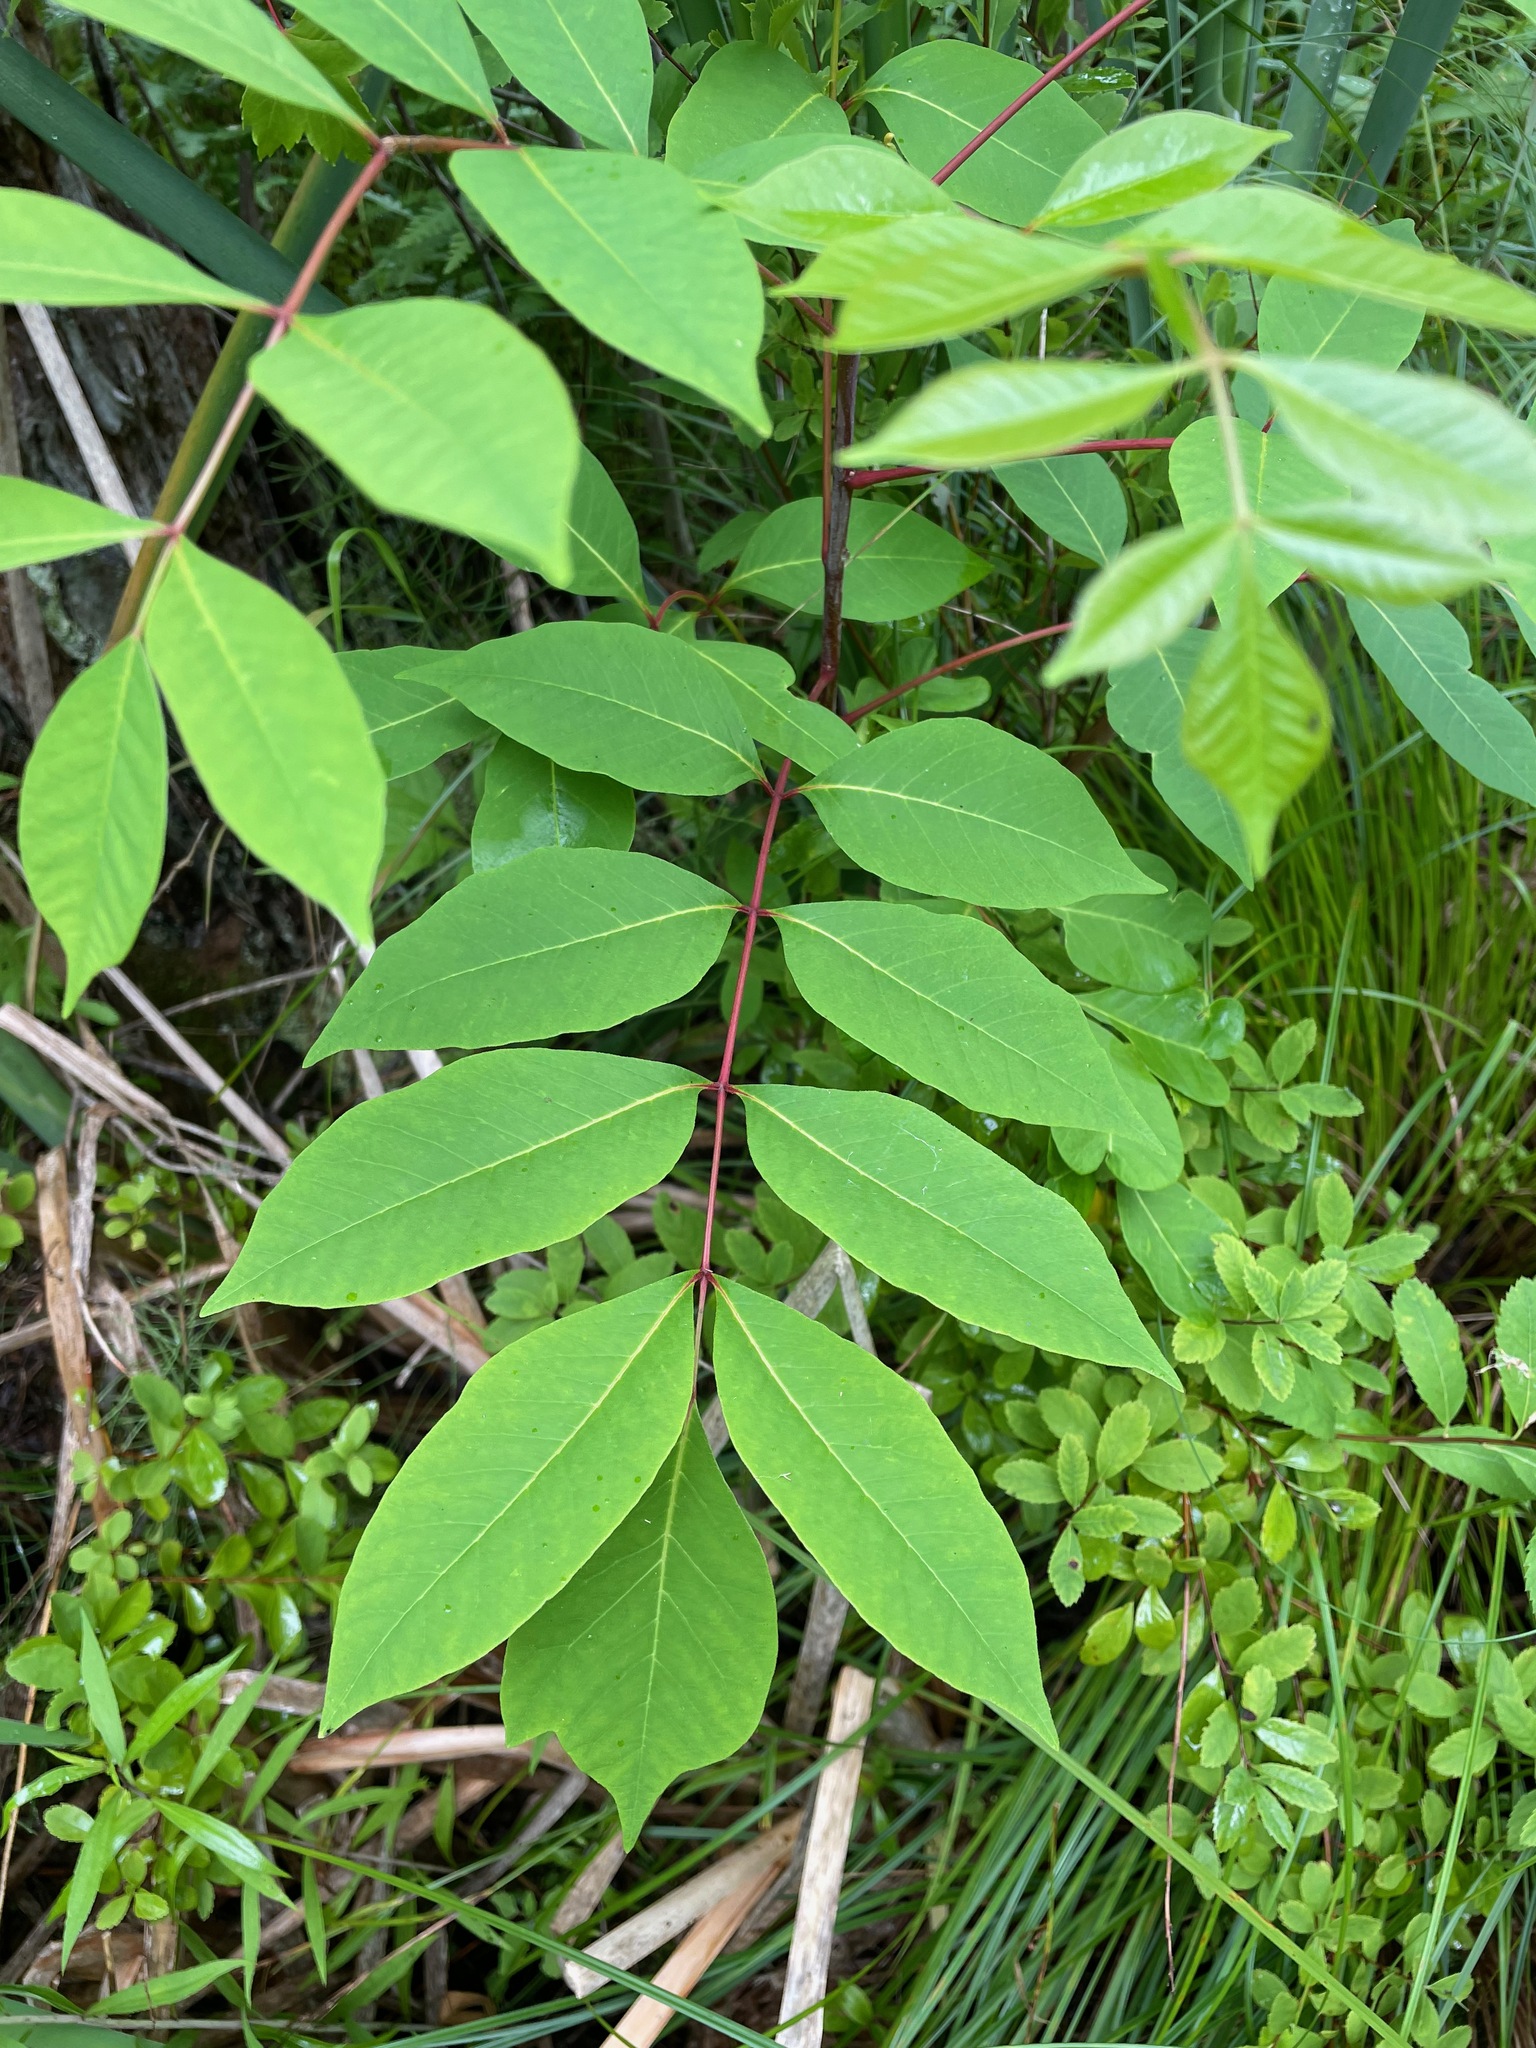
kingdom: Plantae
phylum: Tracheophyta
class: Magnoliopsida
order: Sapindales
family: Anacardiaceae
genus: Toxicodendron
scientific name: Toxicodendron vernix
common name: Poison sumac
